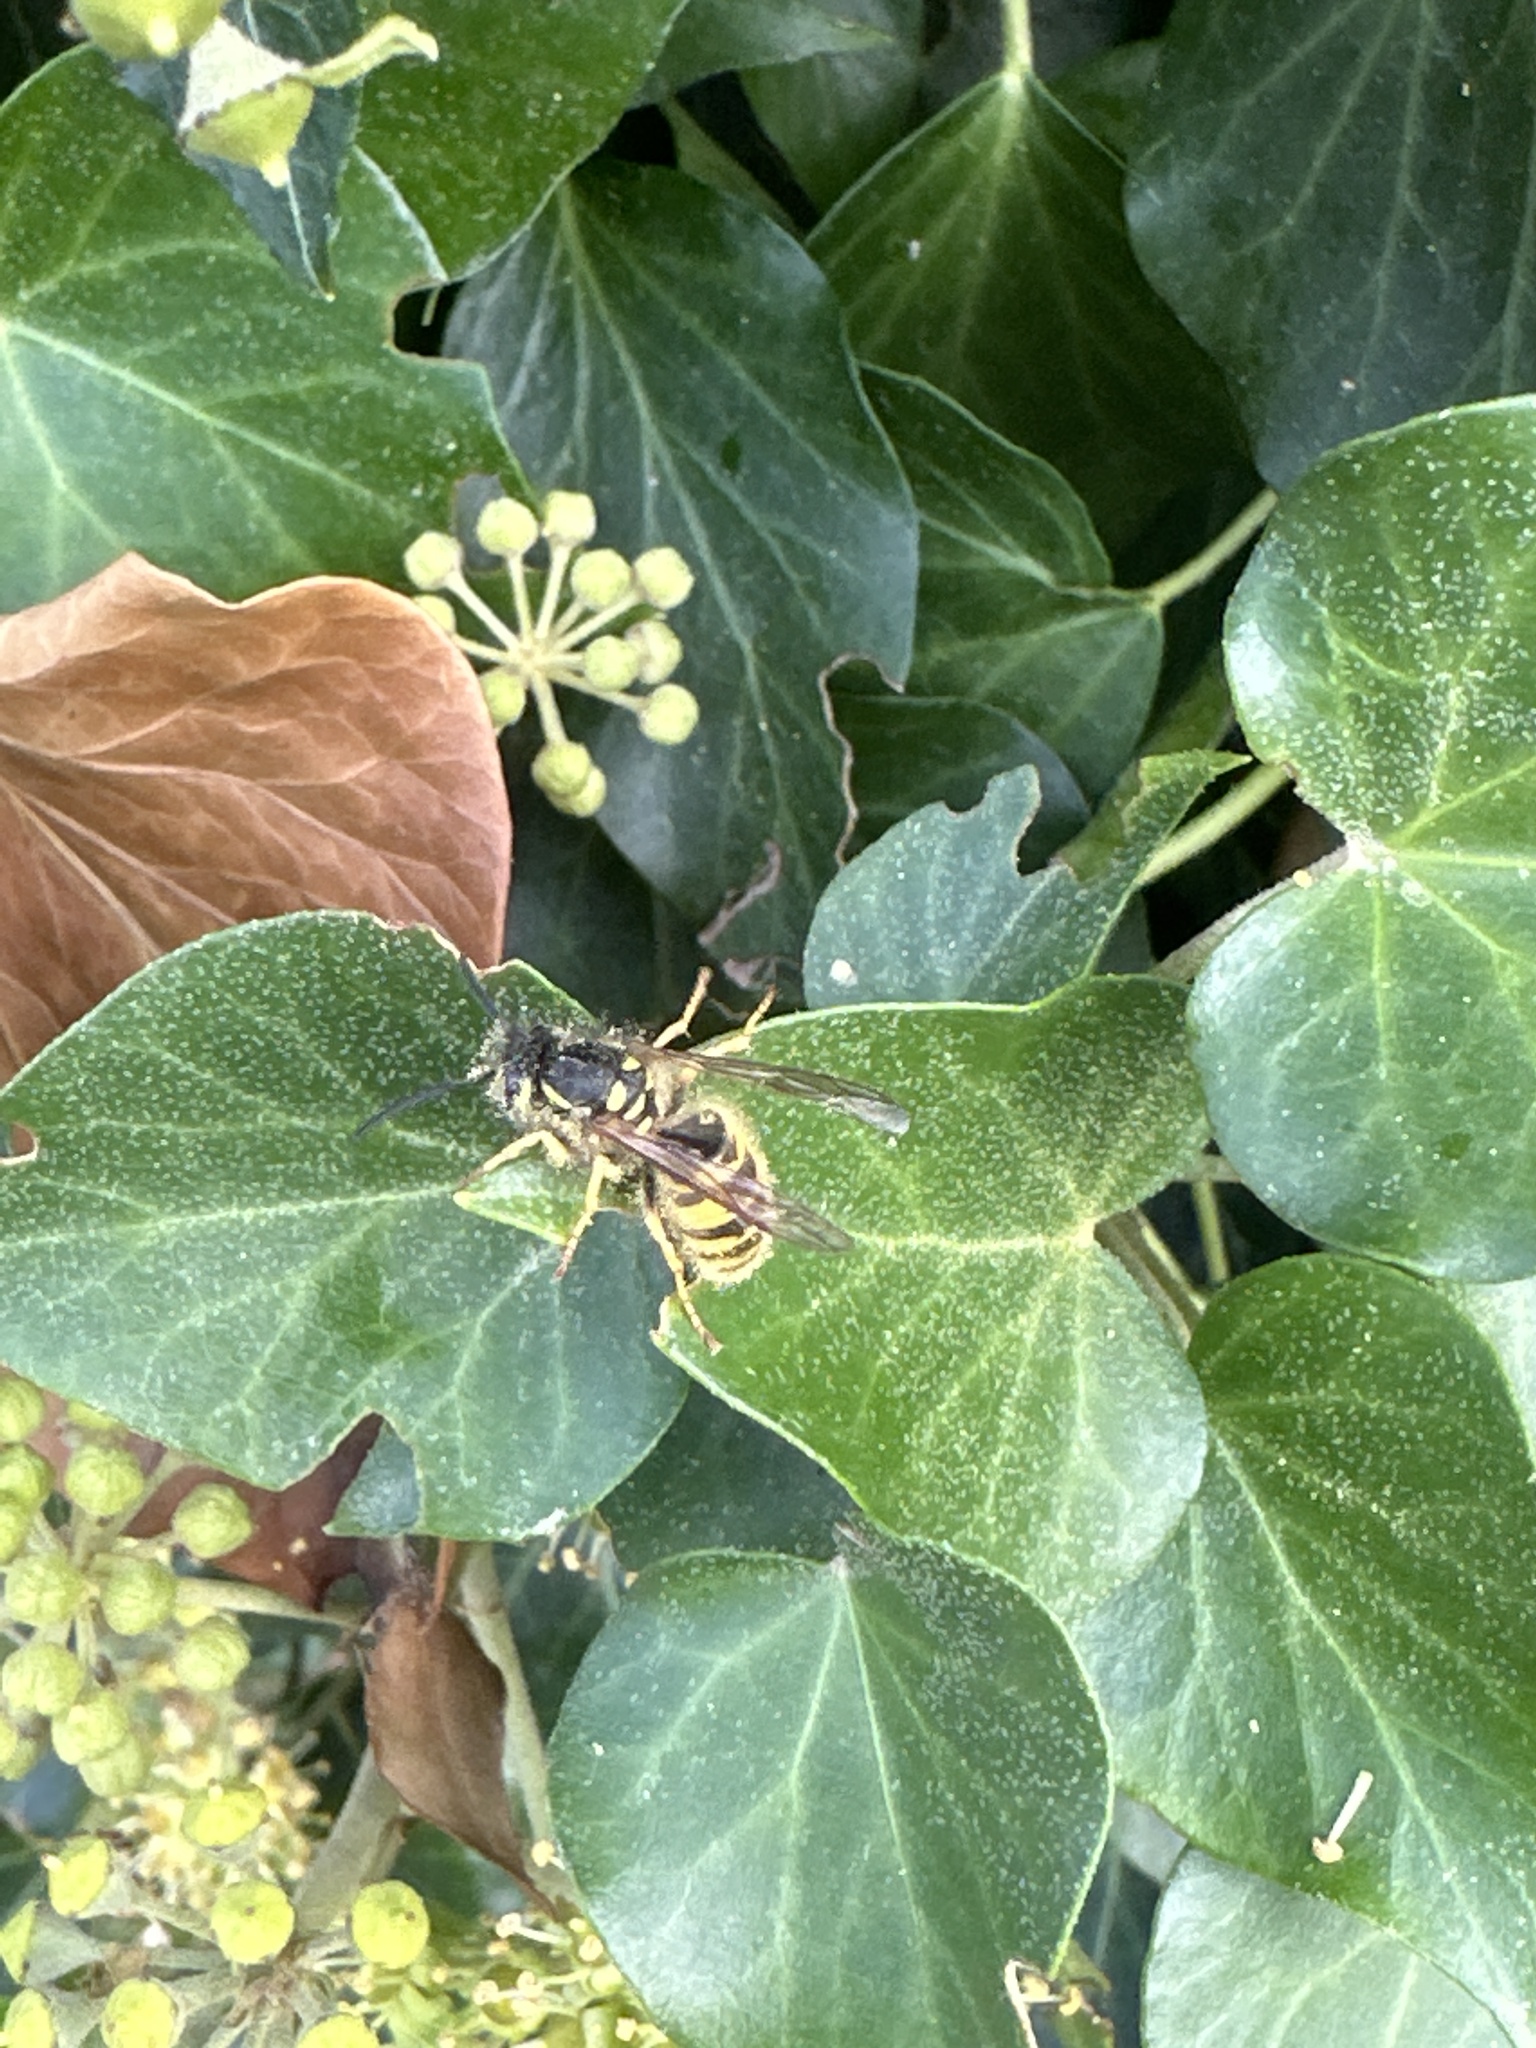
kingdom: Animalia
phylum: Arthropoda
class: Insecta
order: Hymenoptera
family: Vespidae
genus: Vespula
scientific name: Vespula vulgaris
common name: Common wasp
